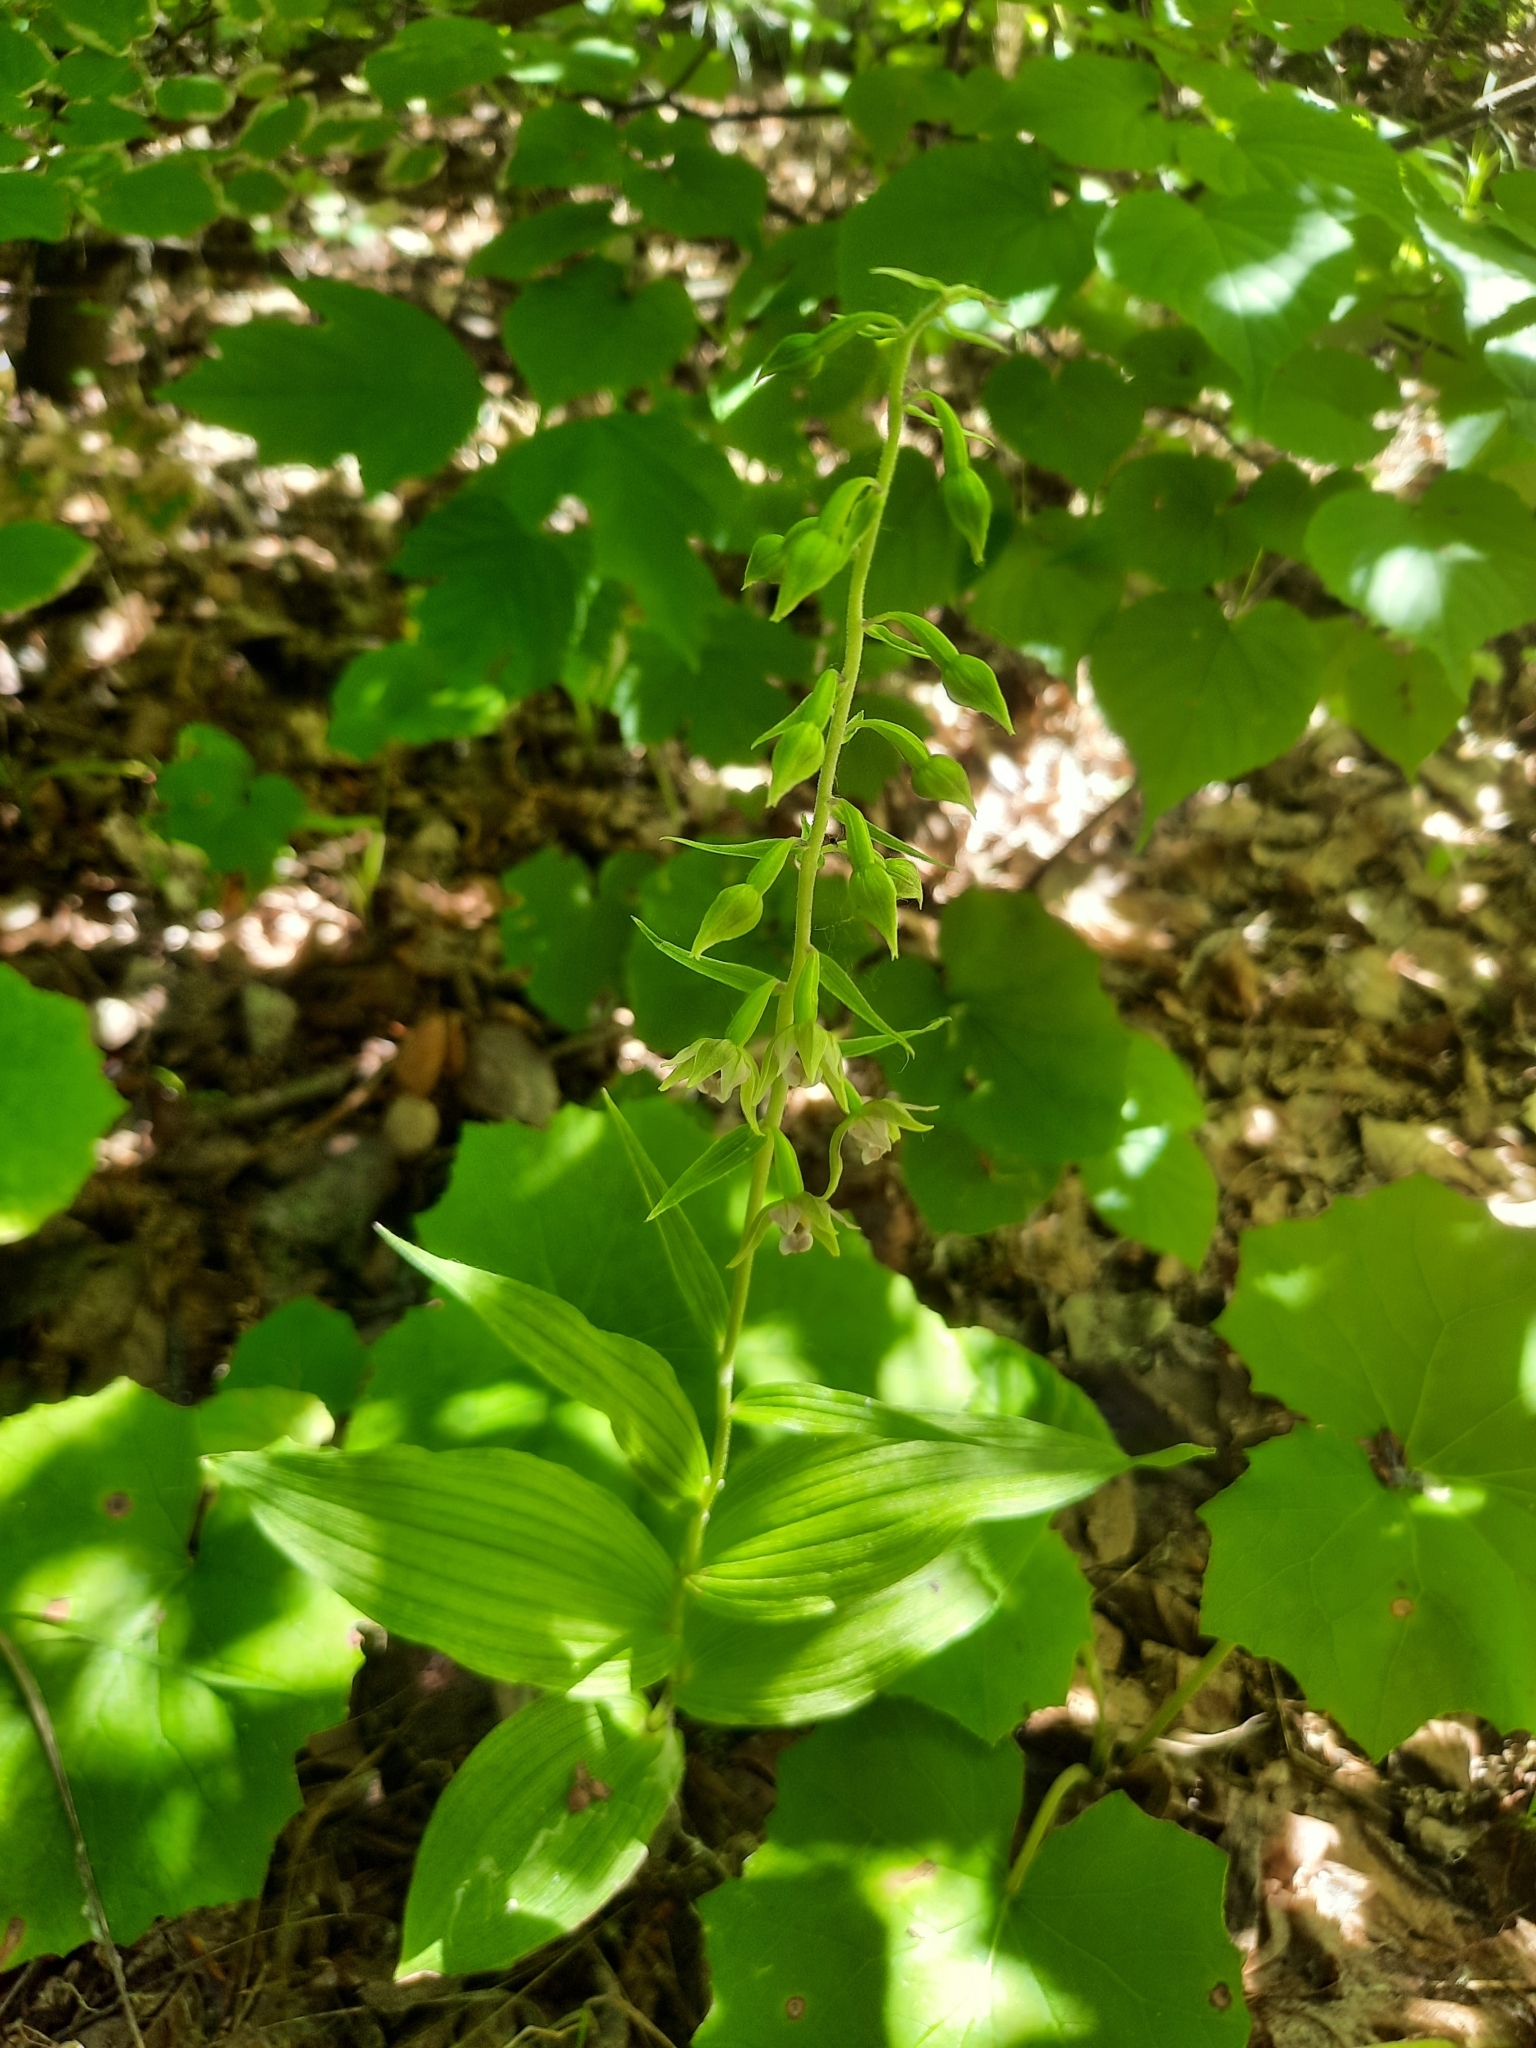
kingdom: Plantae
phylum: Tracheophyta
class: Liliopsida
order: Asparagales
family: Orchidaceae
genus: Epipactis
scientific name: Epipactis helleborine
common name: Broad-leaved helleborine
